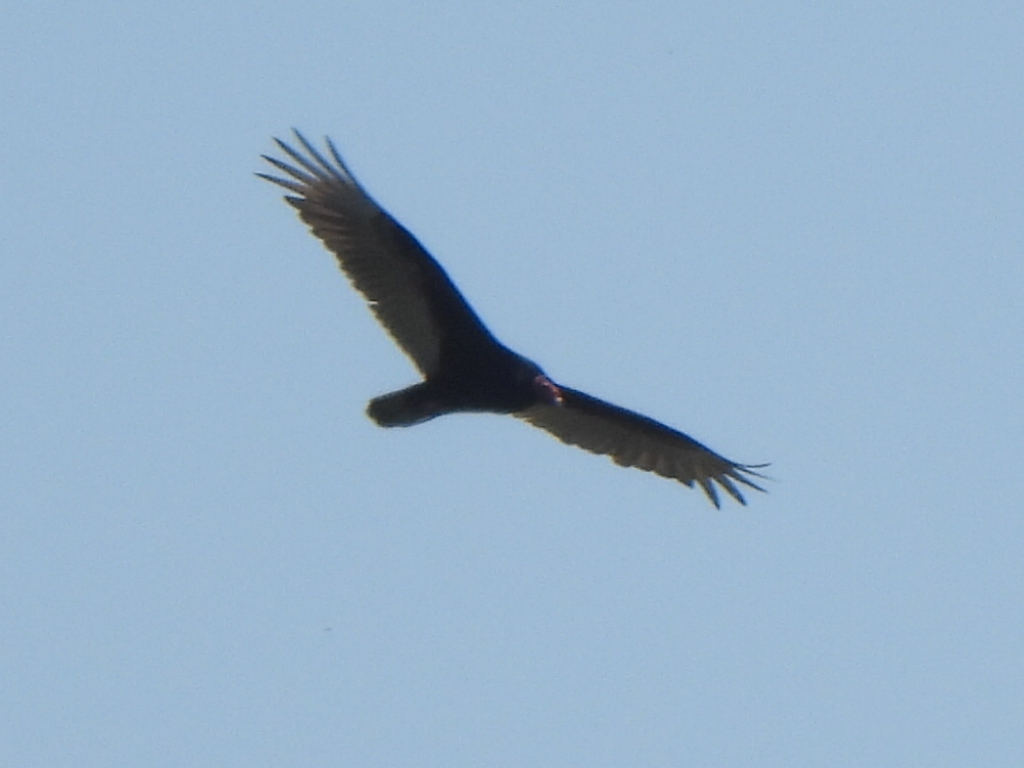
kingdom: Animalia
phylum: Chordata
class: Aves
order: Accipitriformes
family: Cathartidae
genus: Cathartes
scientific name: Cathartes aura
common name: Turkey vulture
